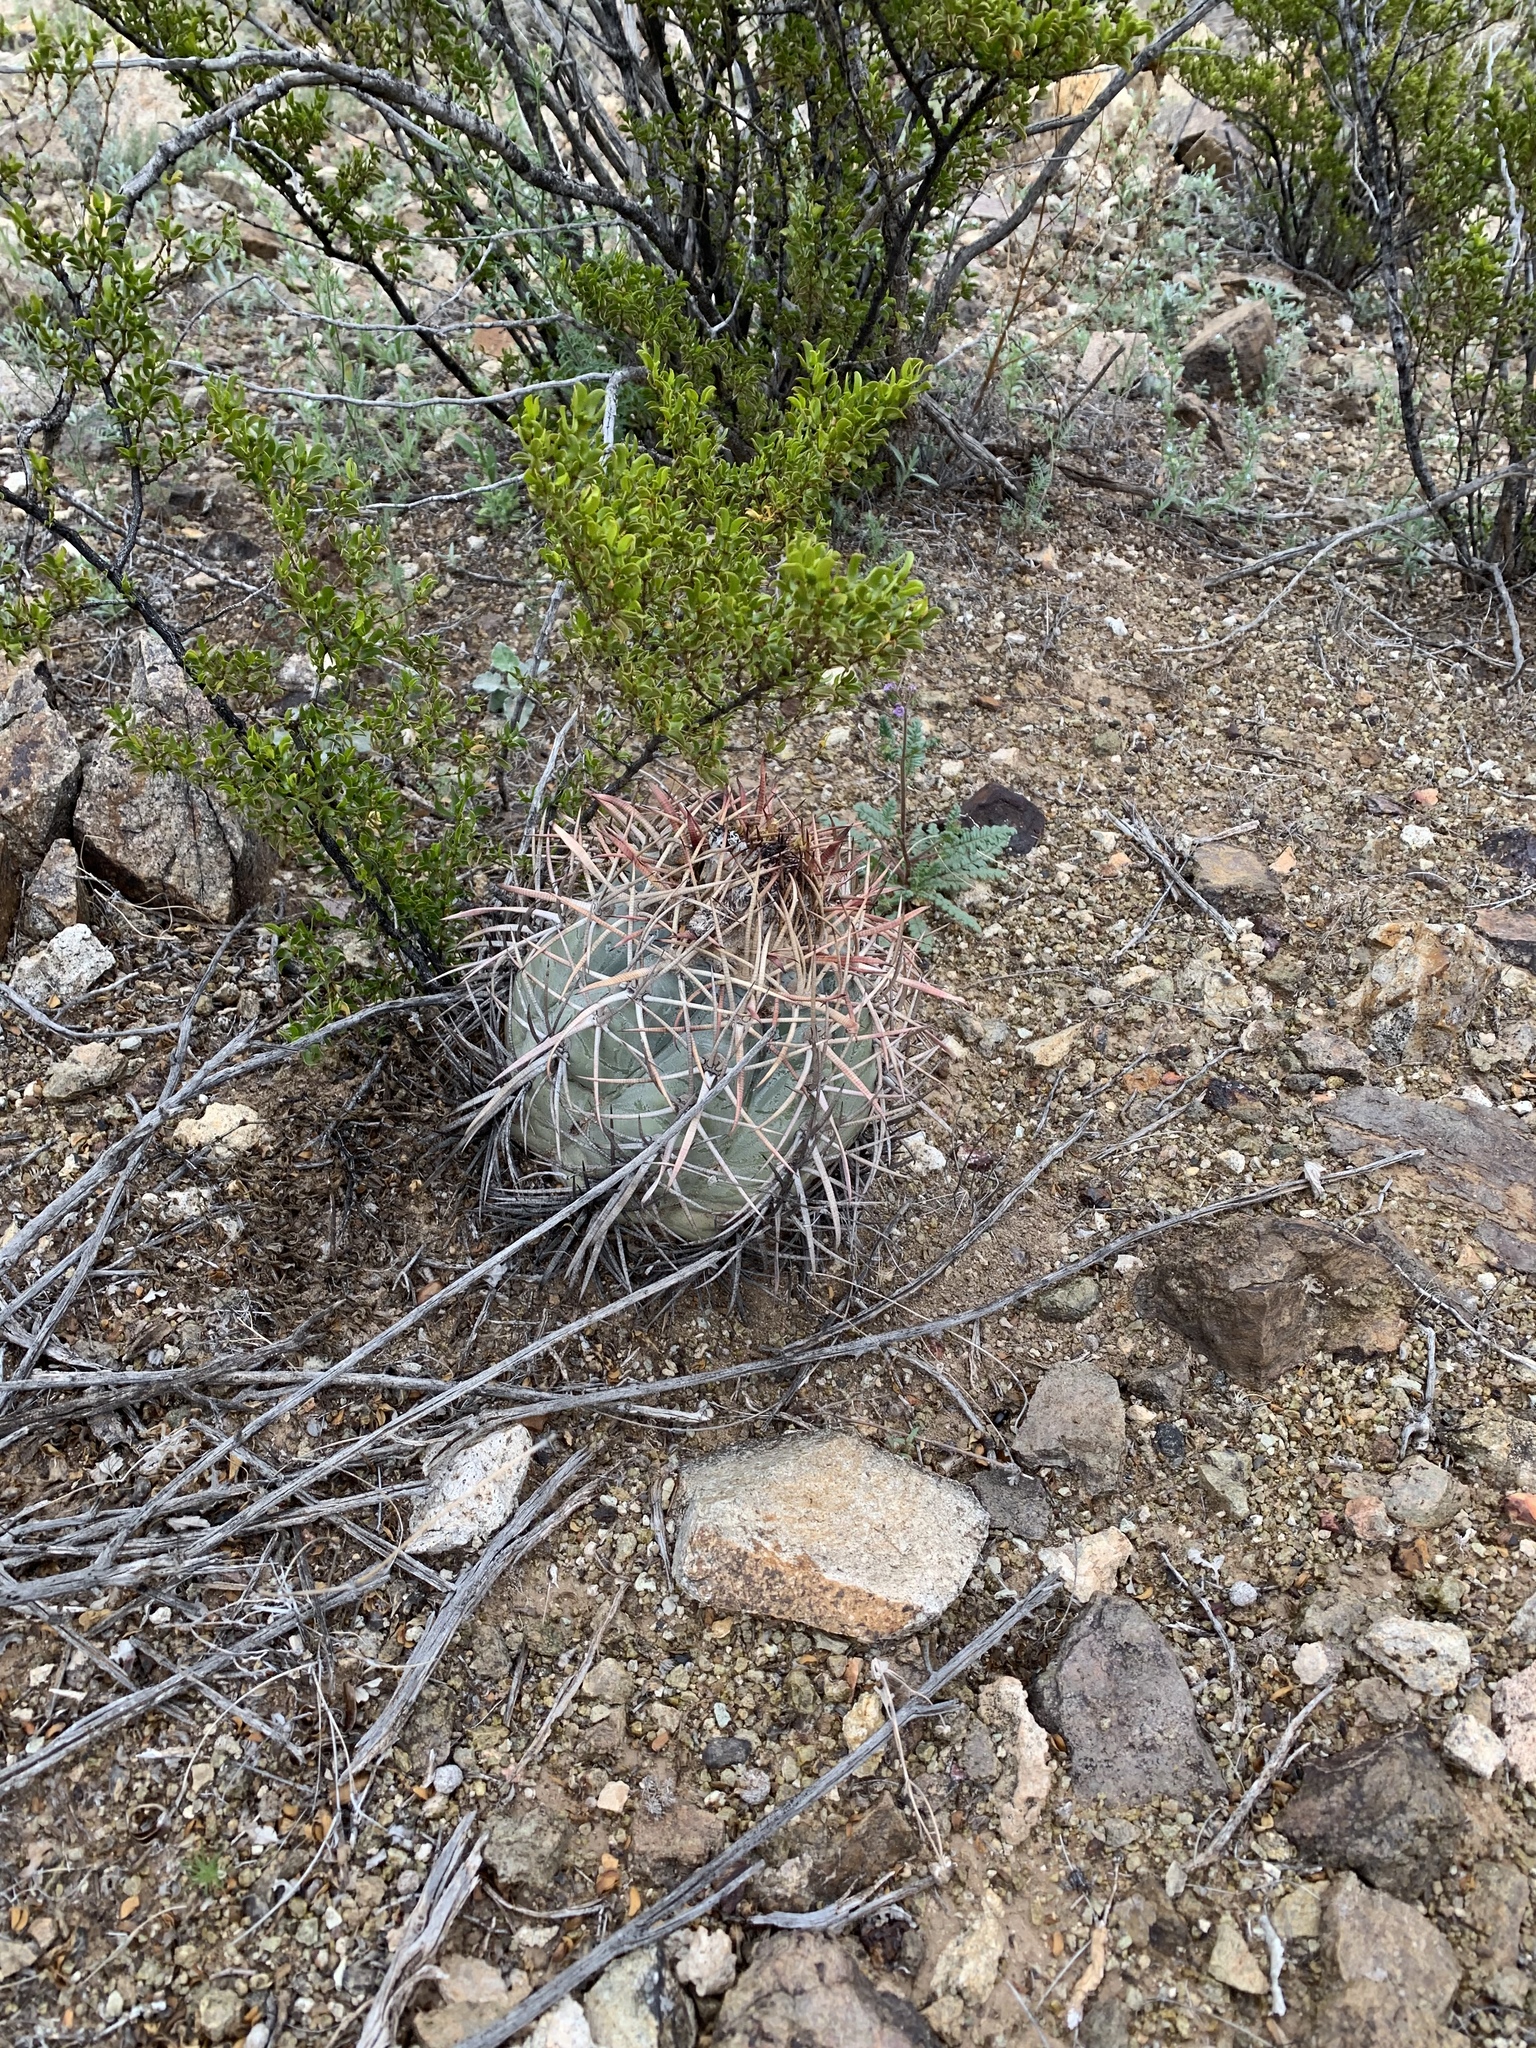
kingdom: Plantae
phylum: Tracheophyta
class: Magnoliopsida
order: Caryophyllales
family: Cactaceae
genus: Echinocactus
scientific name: Echinocactus horizonthalonius
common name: Devilshead
